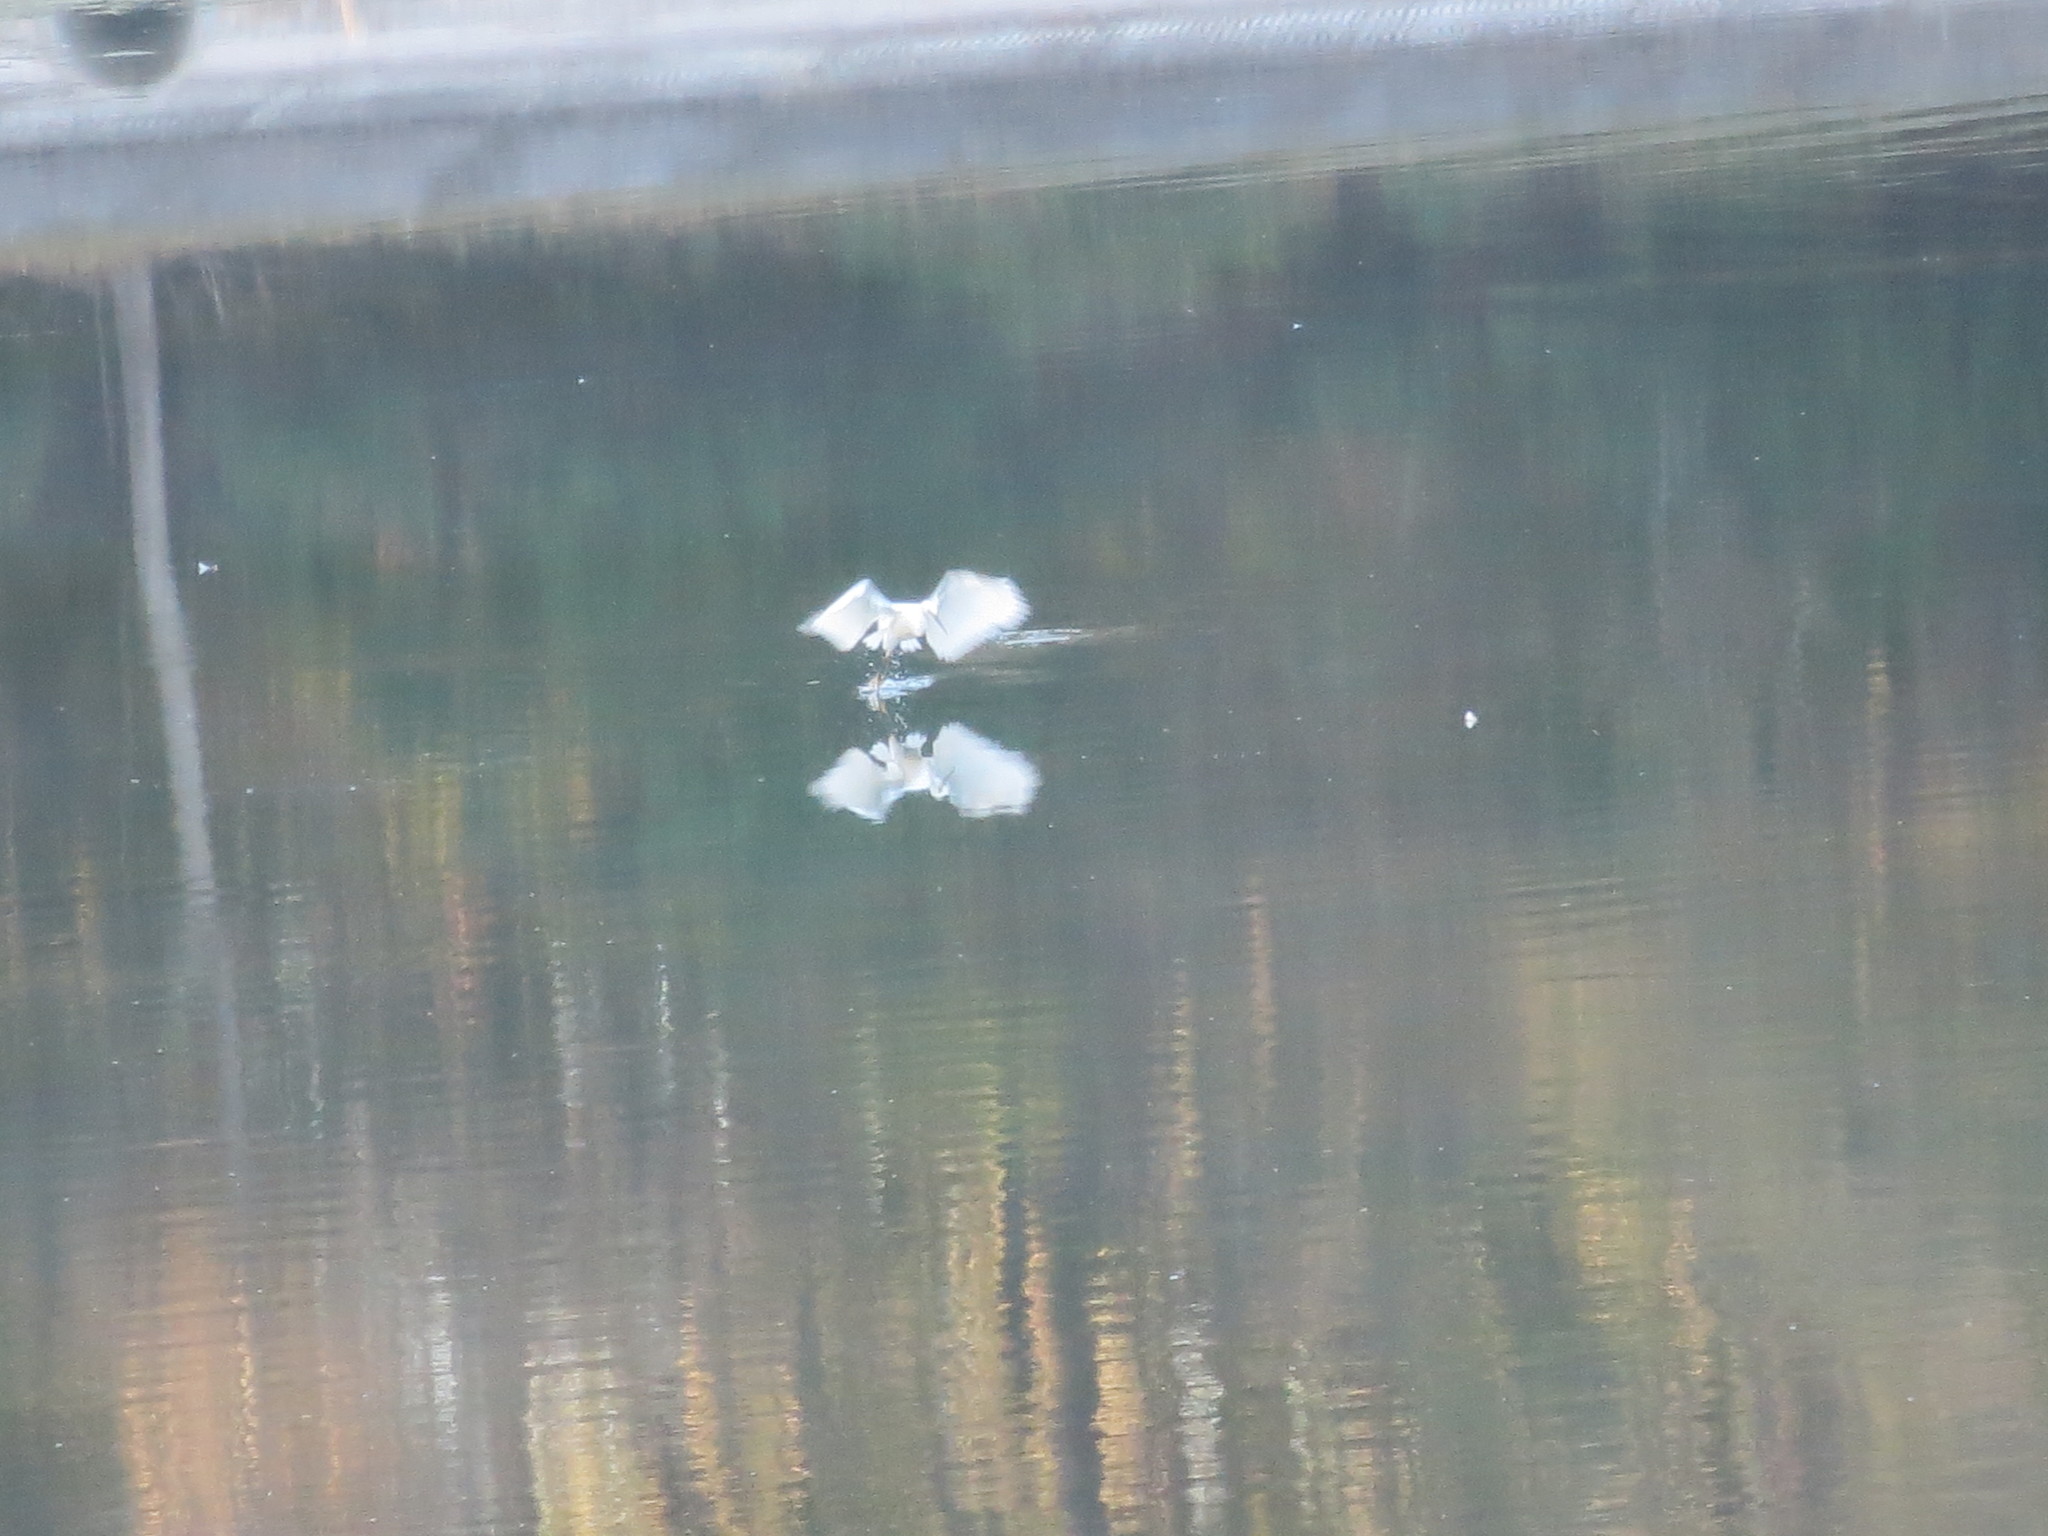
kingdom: Animalia
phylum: Chordata
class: Aves
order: Pelecaniformes
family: Ardeidae
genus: Egretta
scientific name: Egretta thula
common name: Snowy egret
